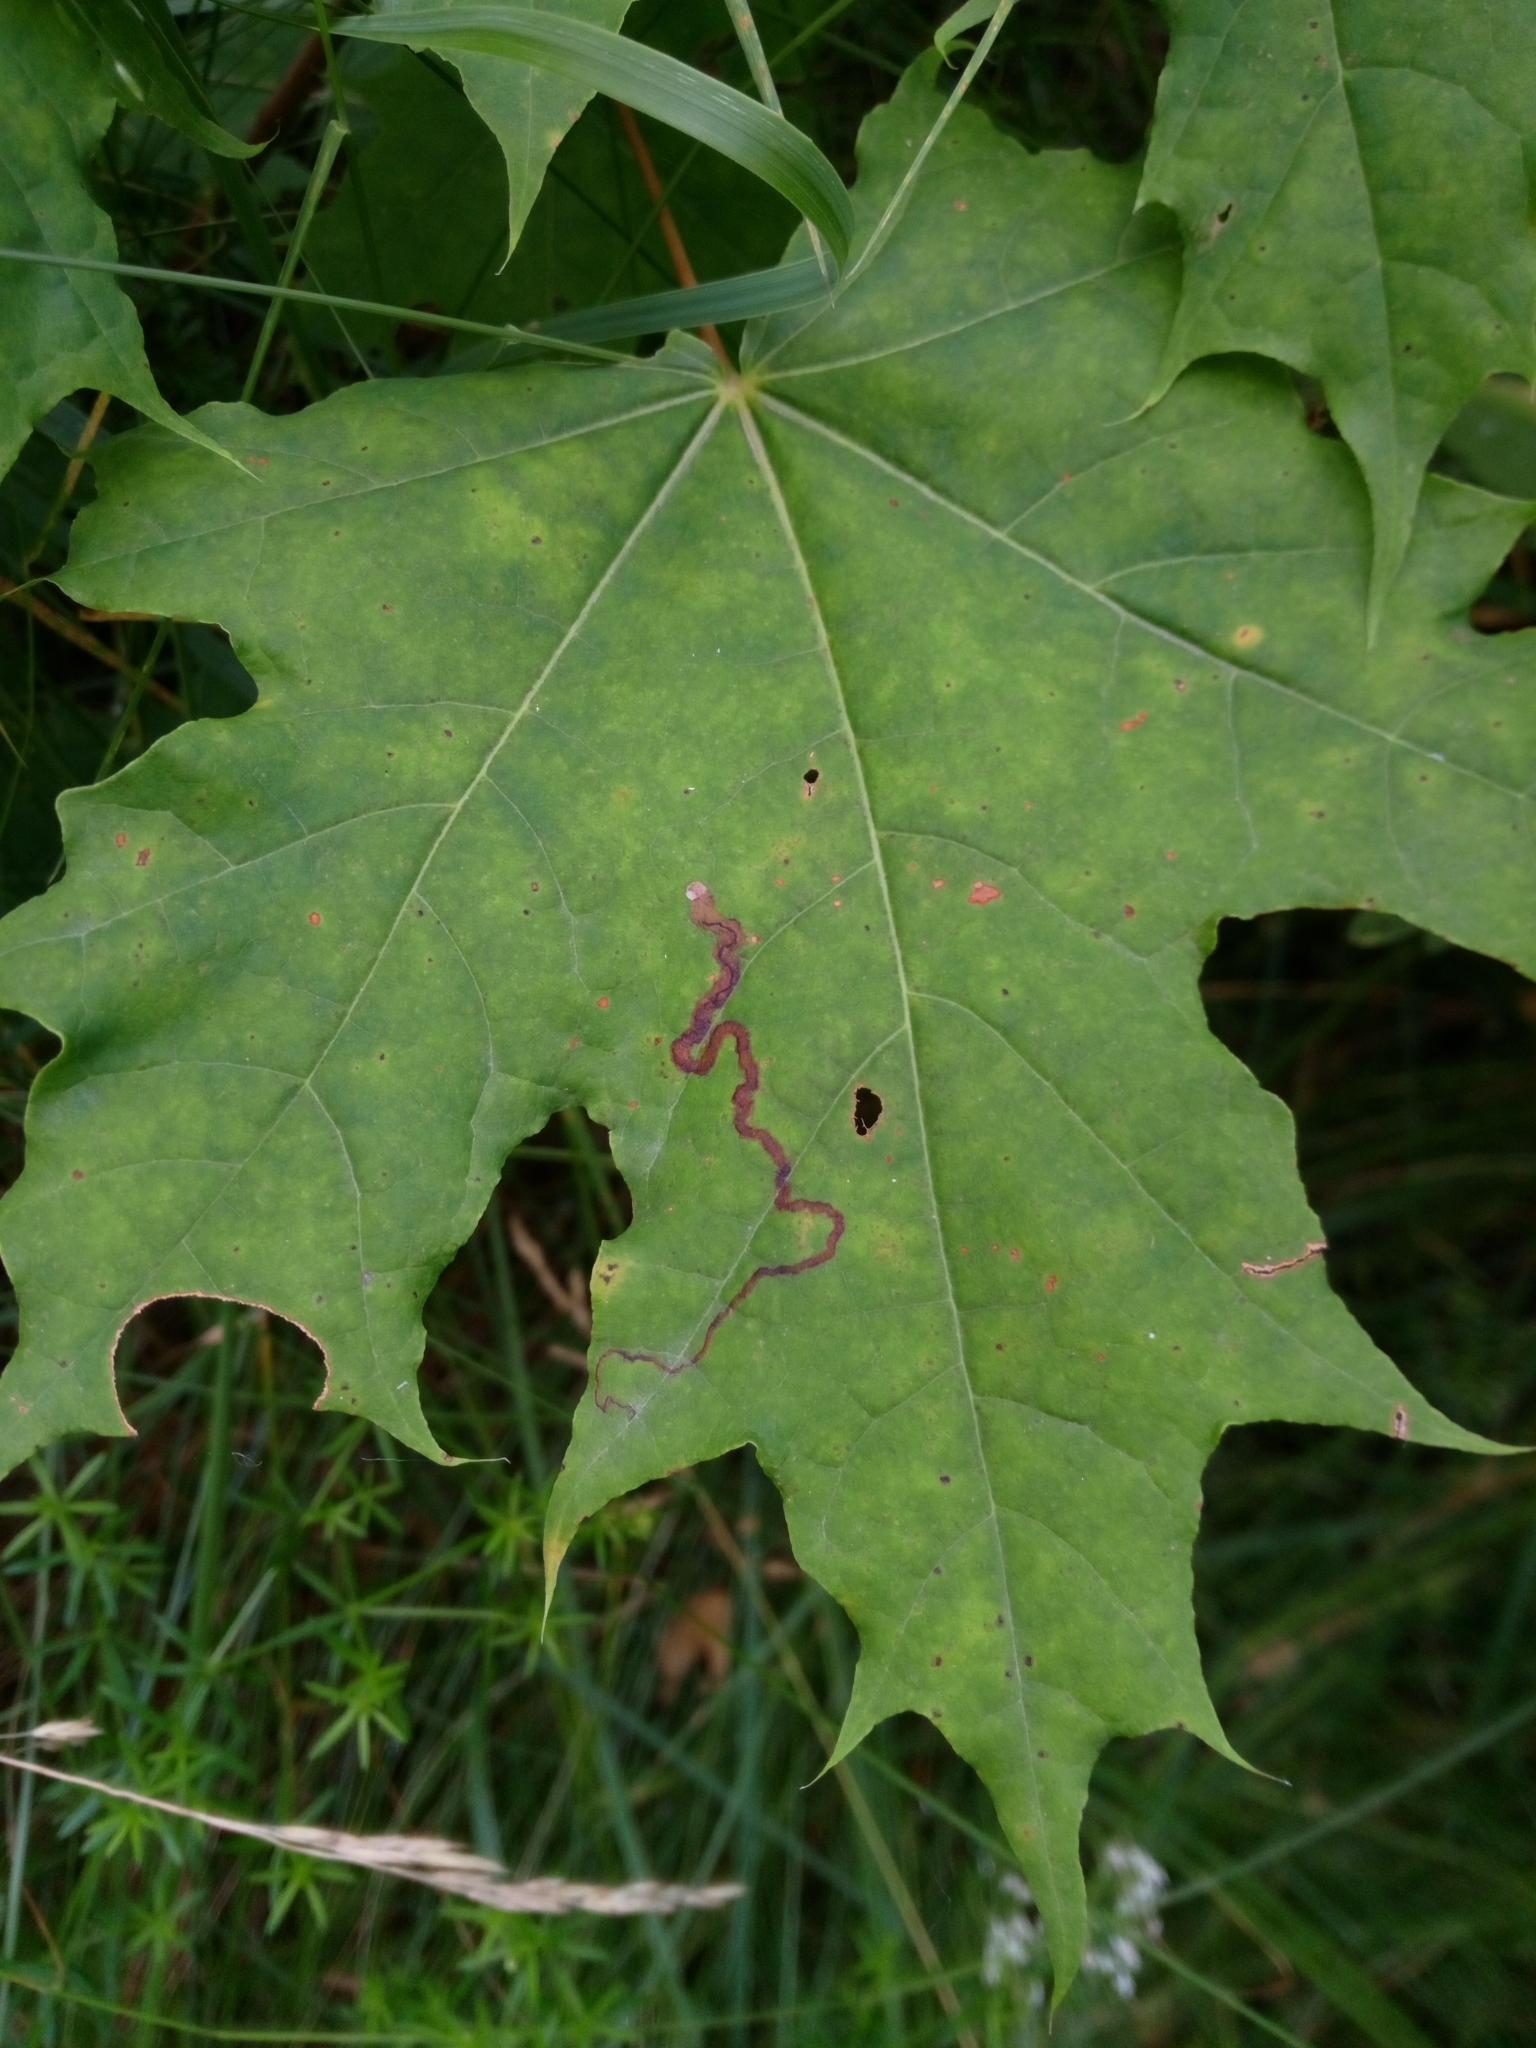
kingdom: Animalia
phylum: Arthropoda
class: Insecta
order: Lepidoptera
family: Nepticulidae
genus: Stigmella
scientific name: Stigmella aceris
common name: Scarce maple pigmy
